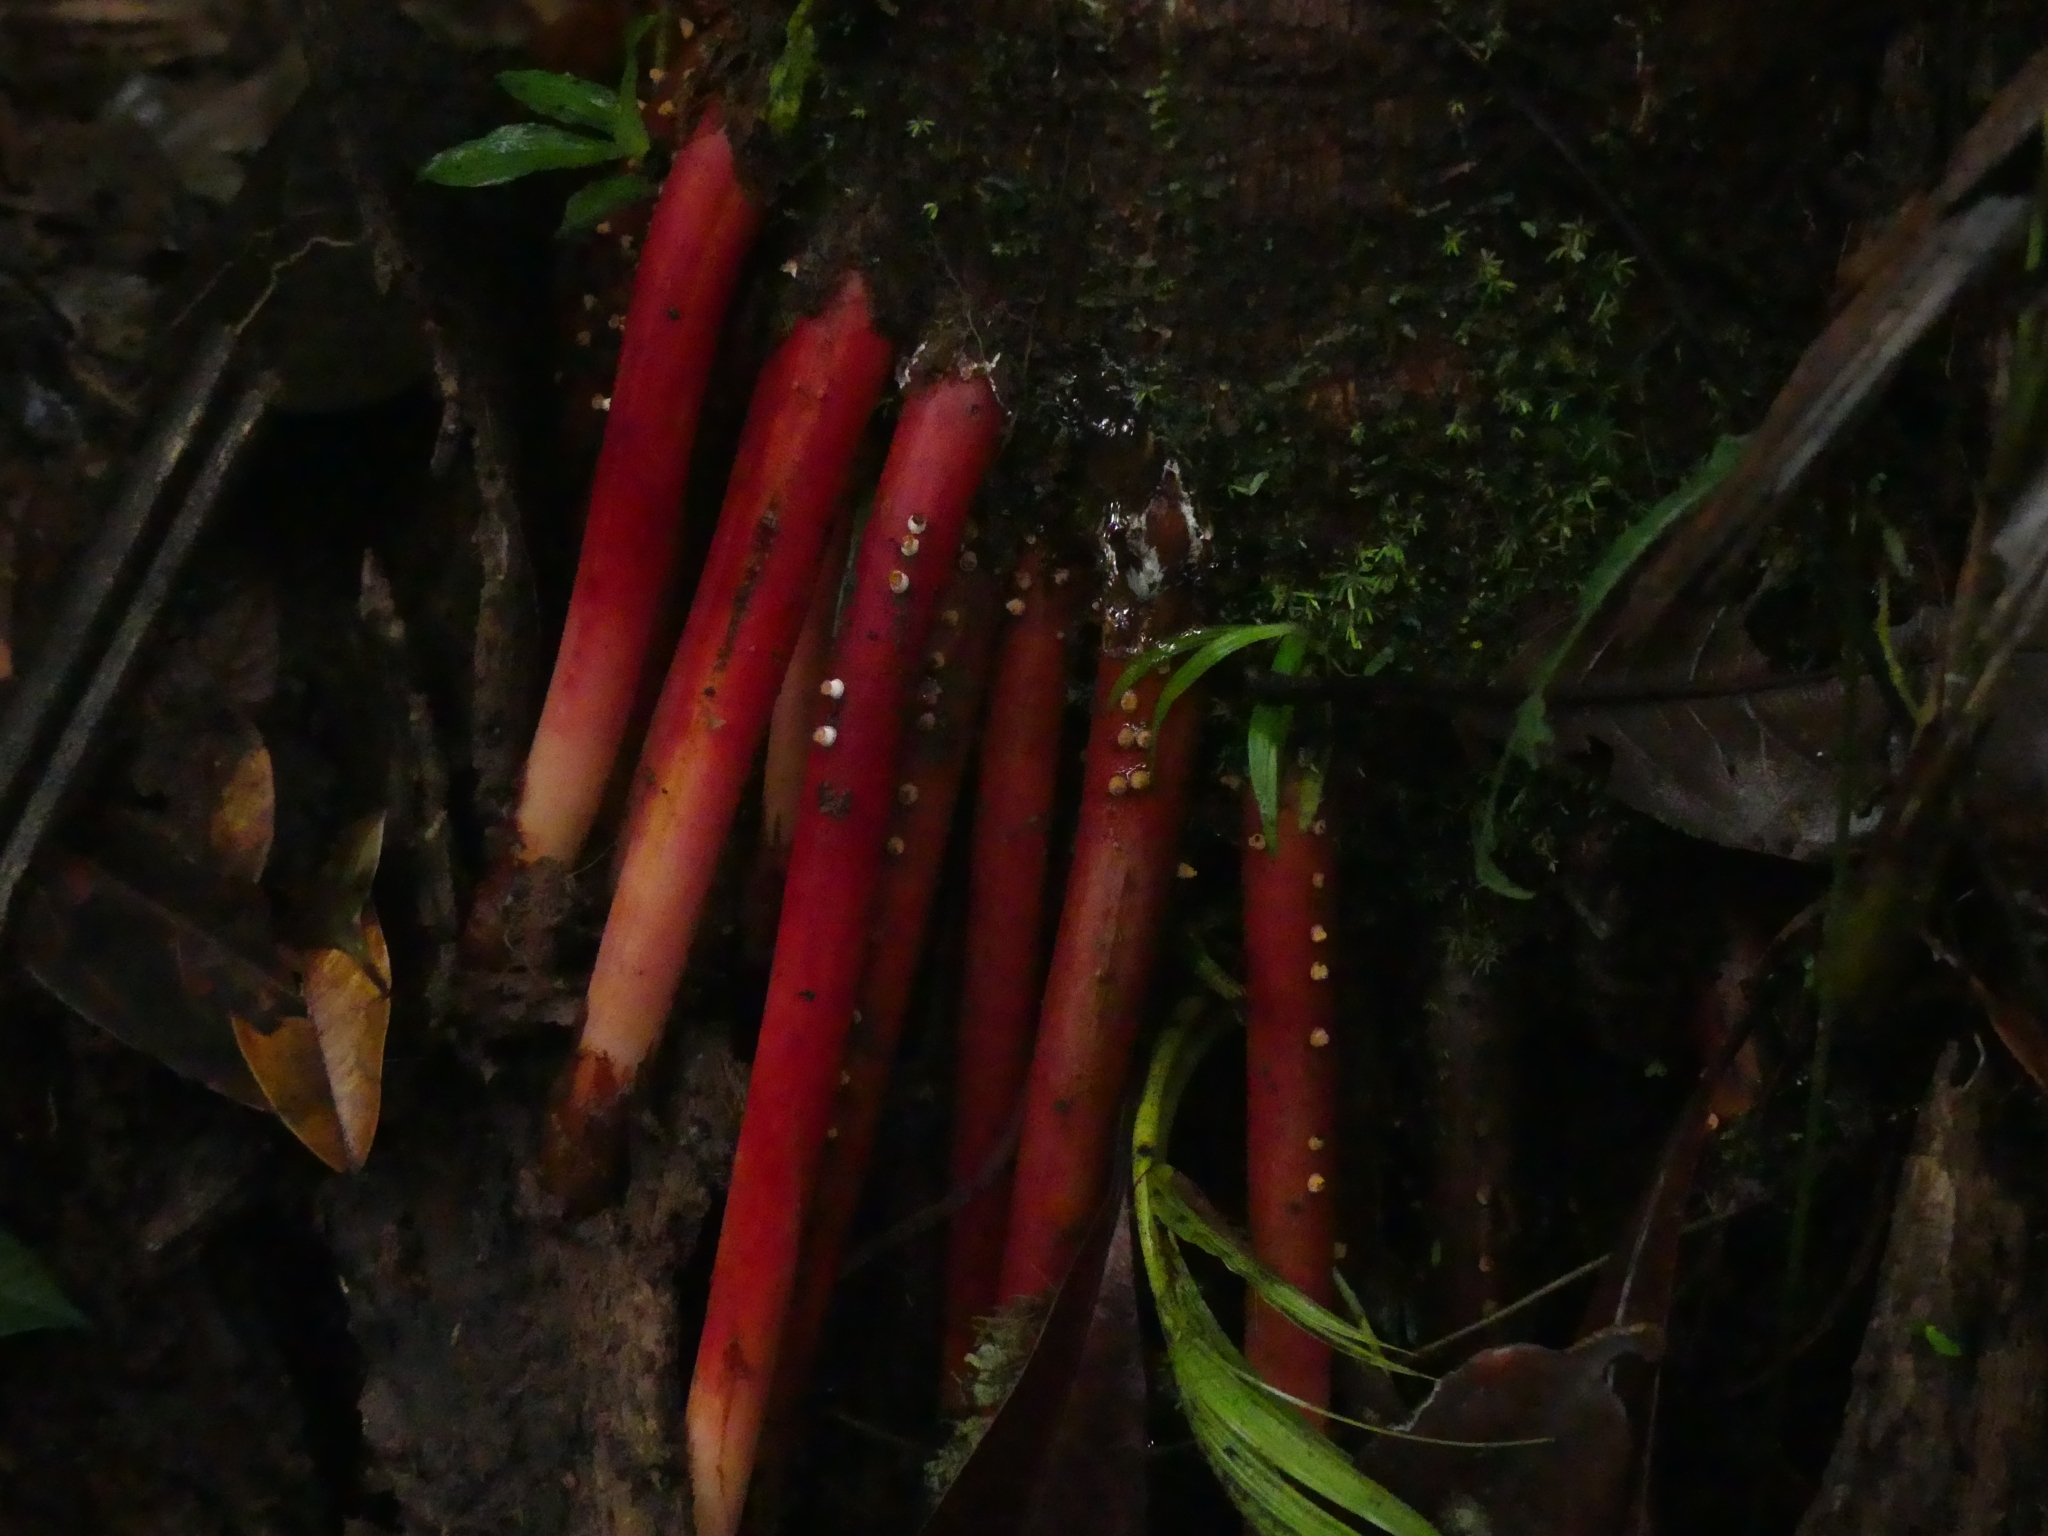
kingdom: Plantae
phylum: Tracheophyta
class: Liliopsida
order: Arecales
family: Arecaceae
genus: Euterpe
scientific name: Euterpe oleracea
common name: Assai palm
